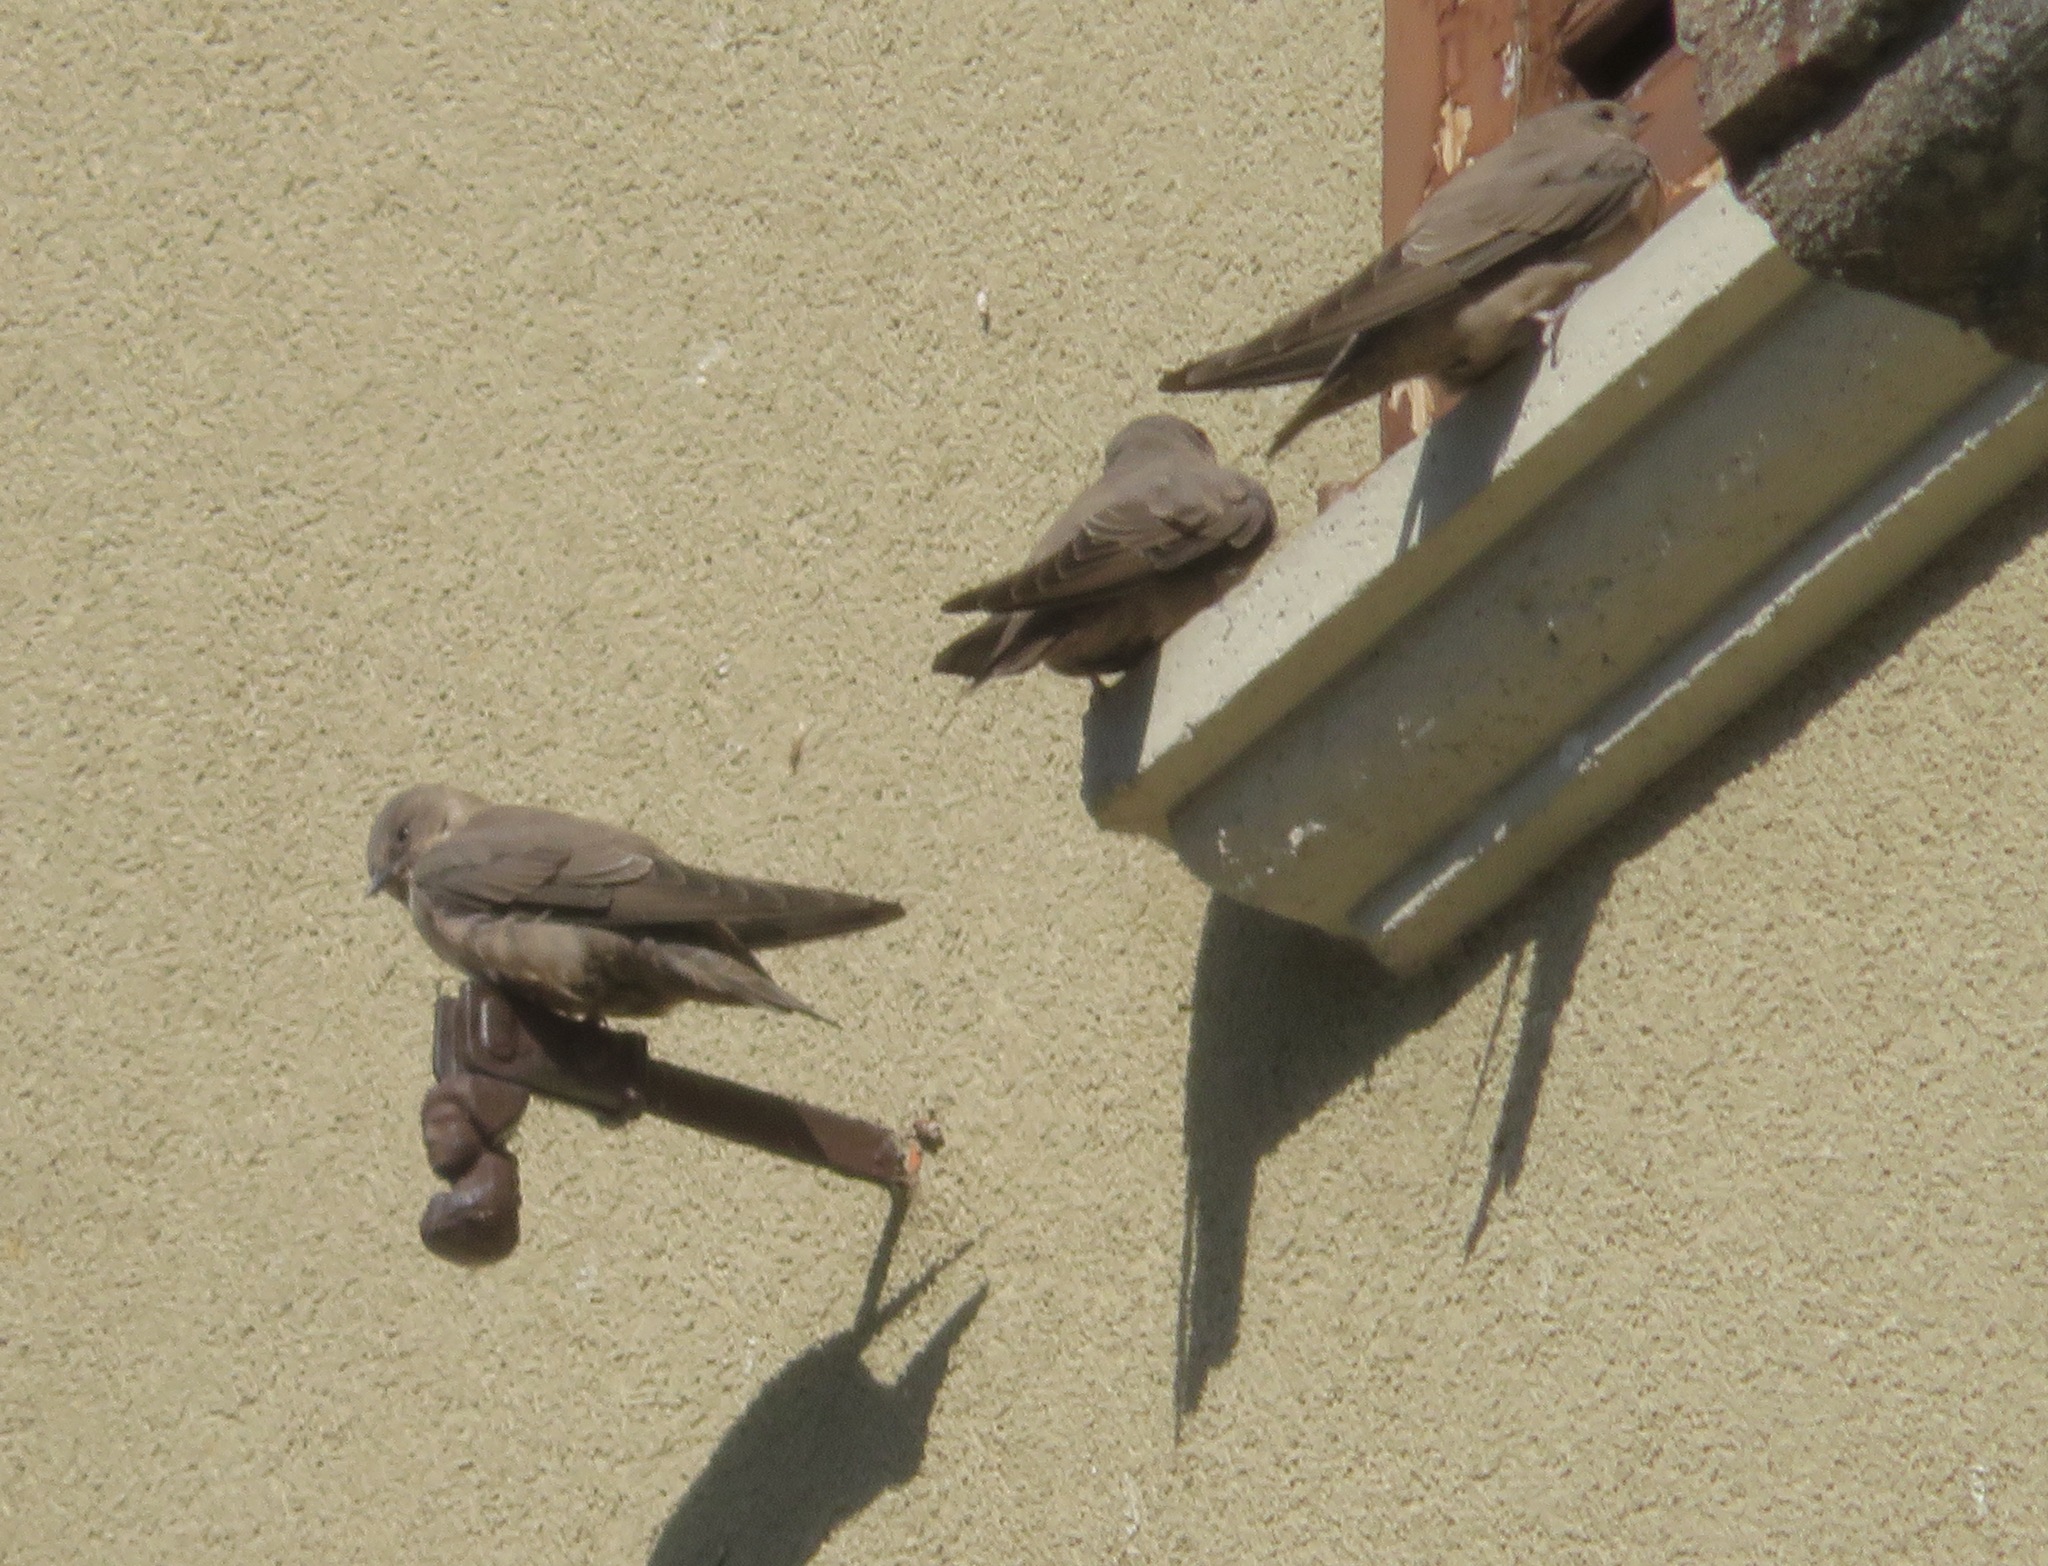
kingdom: Animalia
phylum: Chordata
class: Aves
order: Passeriformes
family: Hirundinidae
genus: Ptyonoprogne
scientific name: Ptyonoprogne rupestris
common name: Eurasian crag martin
